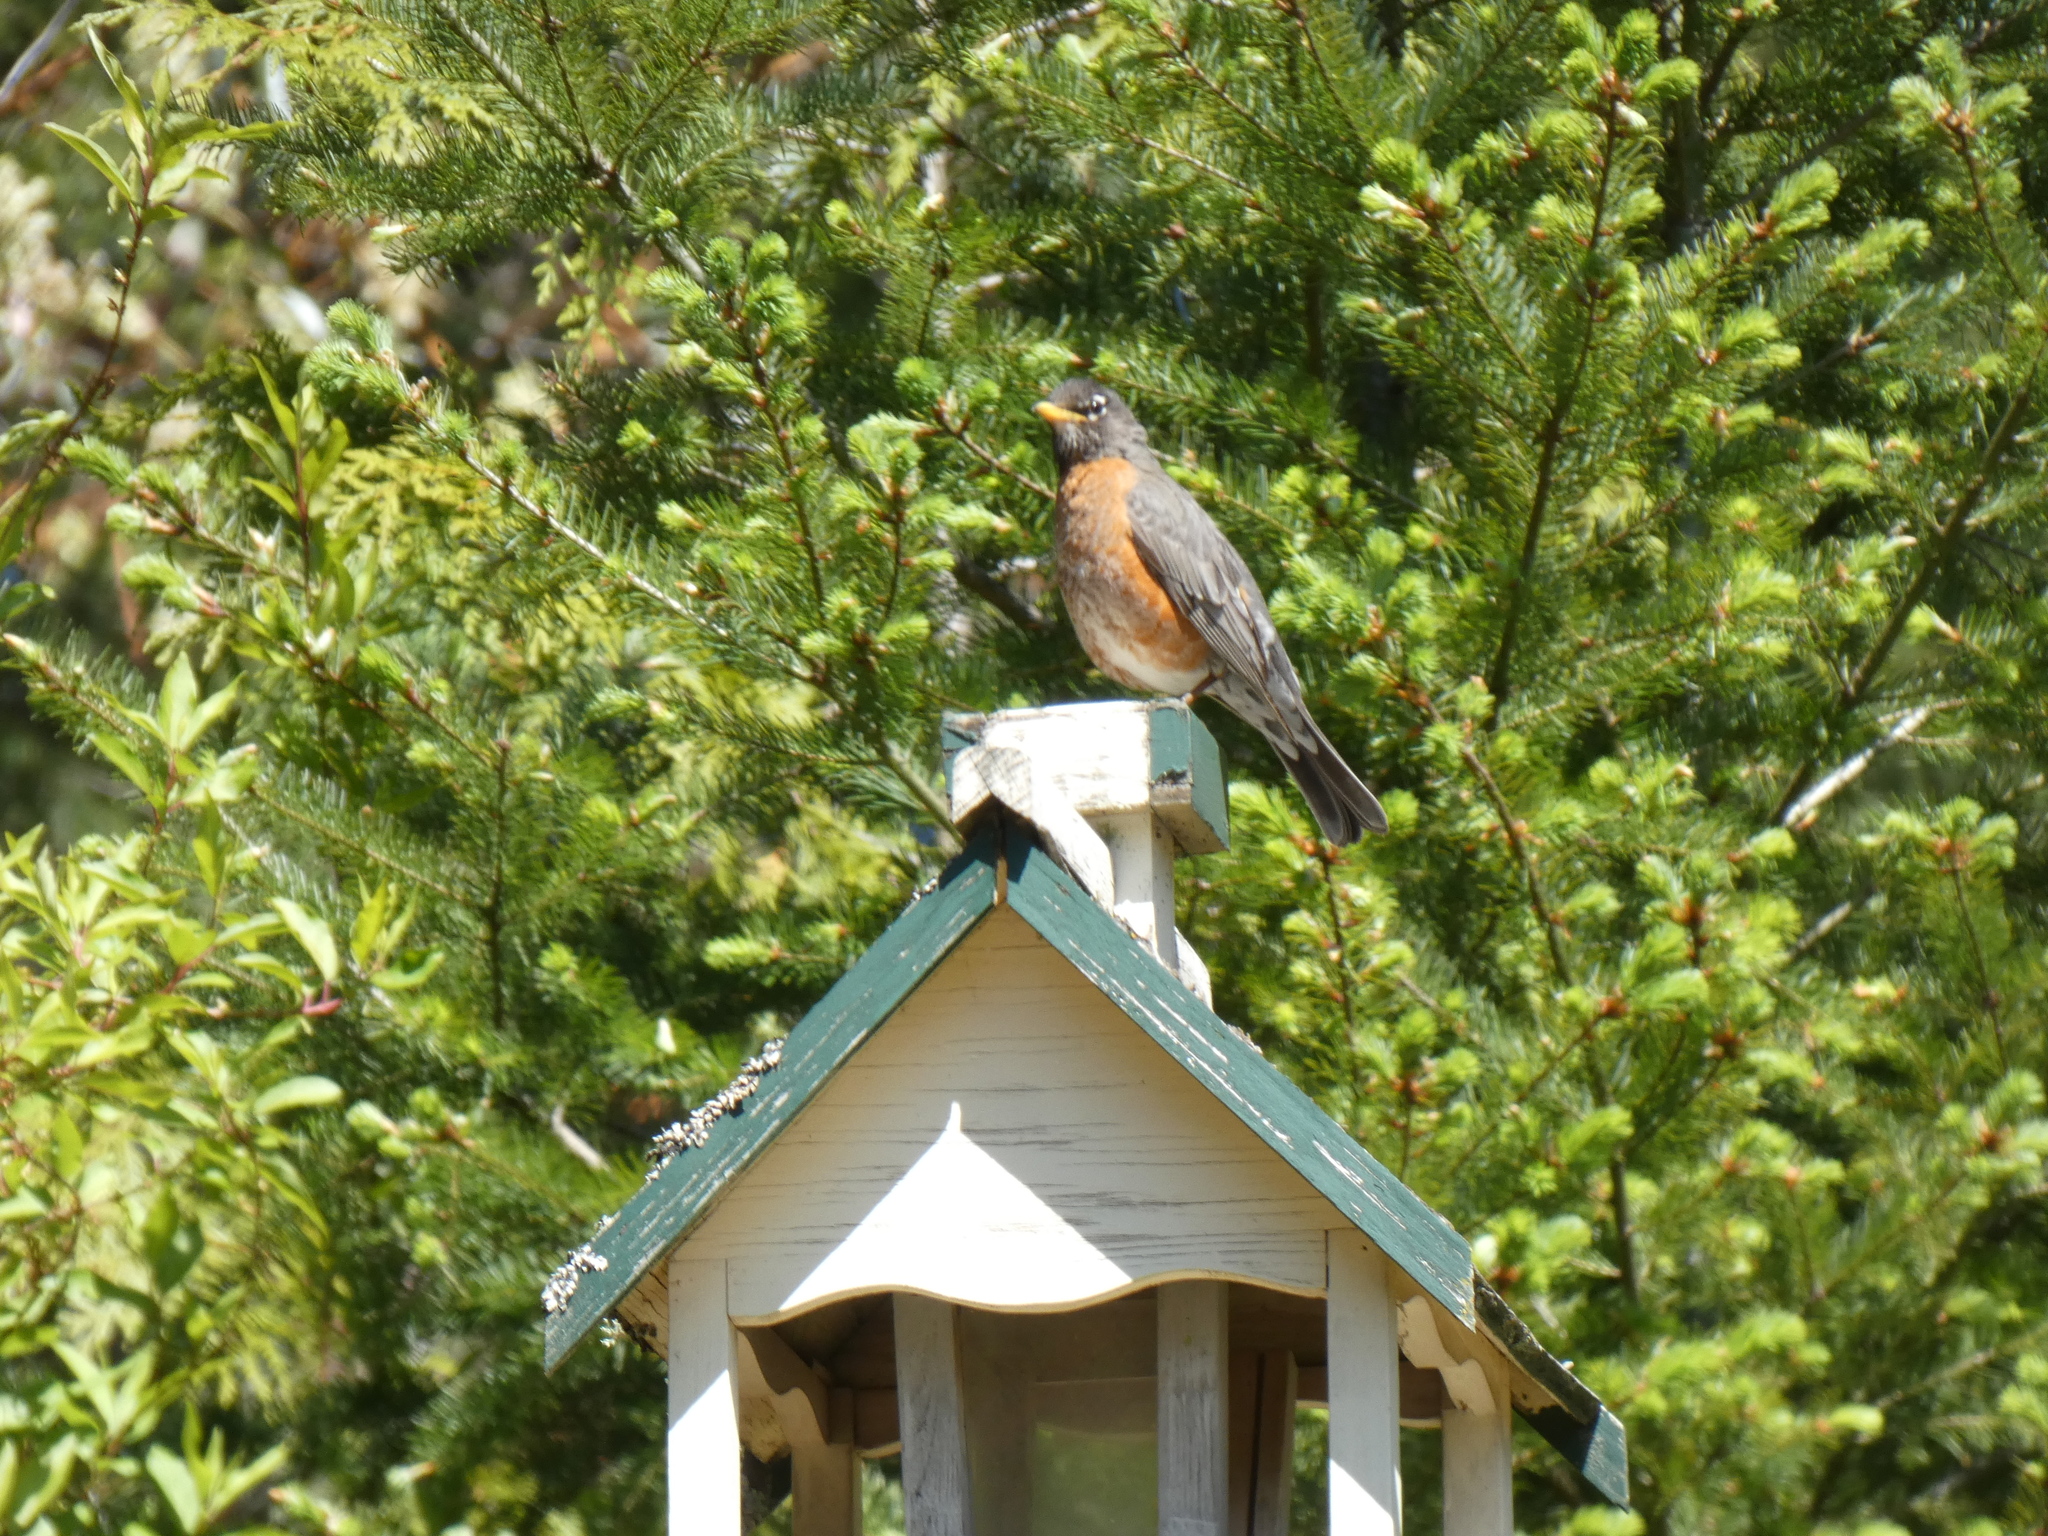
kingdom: Animalia
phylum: Chordata
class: Aves
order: Passeriformes
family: Turdidae
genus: Turdus
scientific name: Turdus migratorius
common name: American robin
